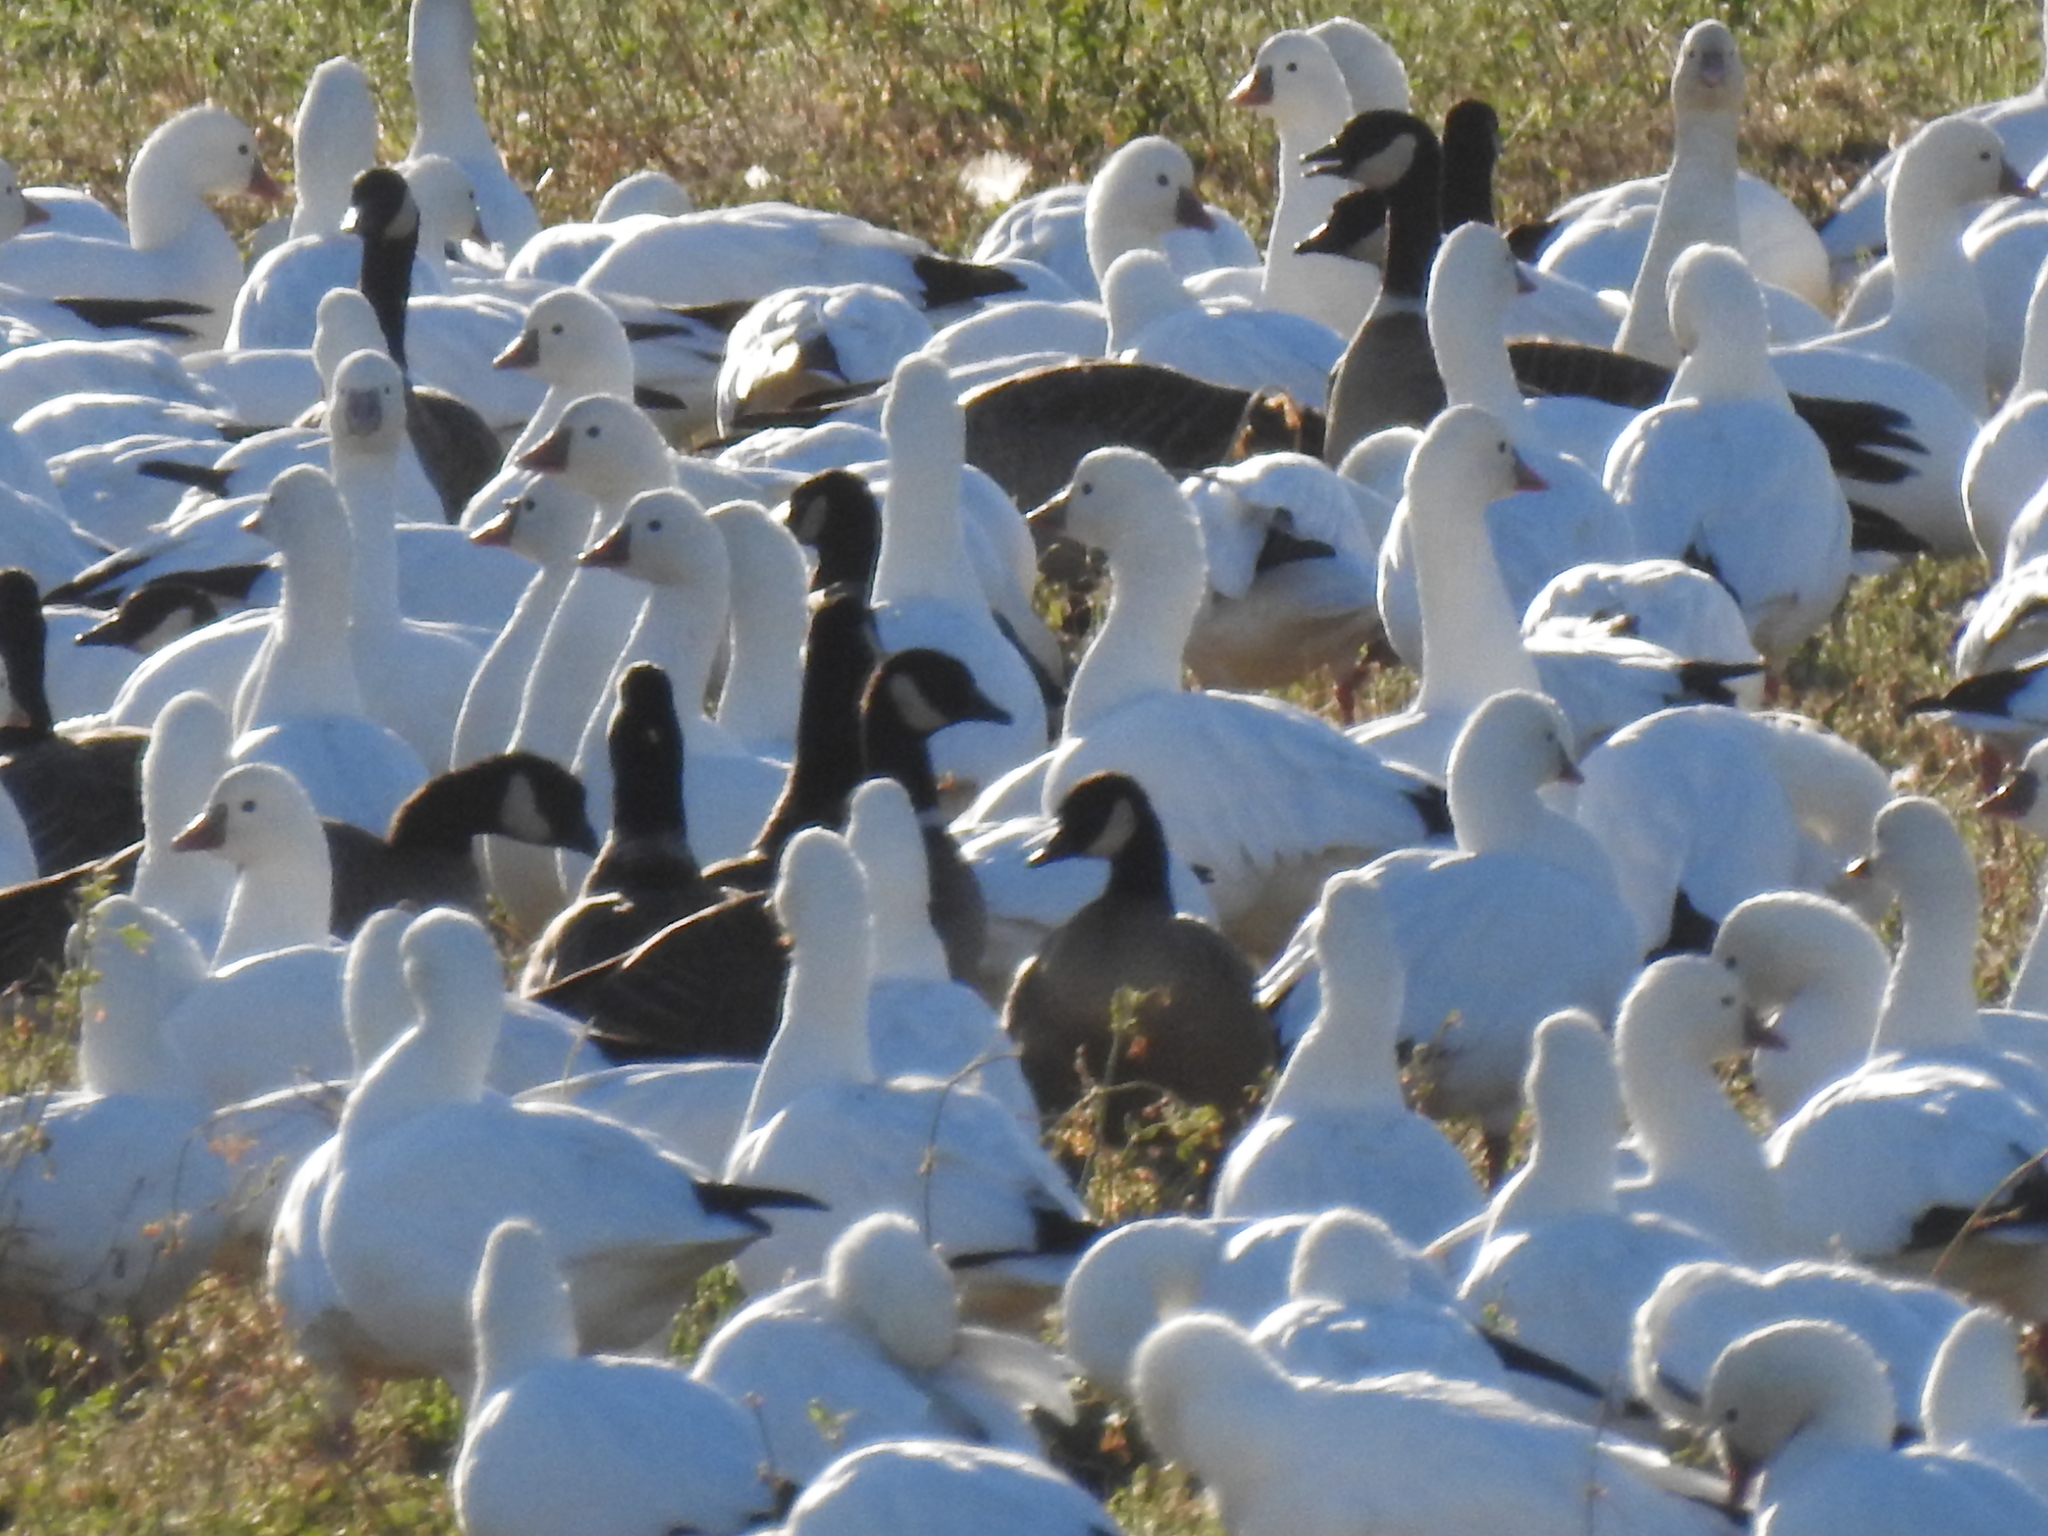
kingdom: Animalia
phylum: Chordata
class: Aves
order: Anseriformes
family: Anatidae
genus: Branta
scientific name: Branta hutchinsii
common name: Cackling goose
